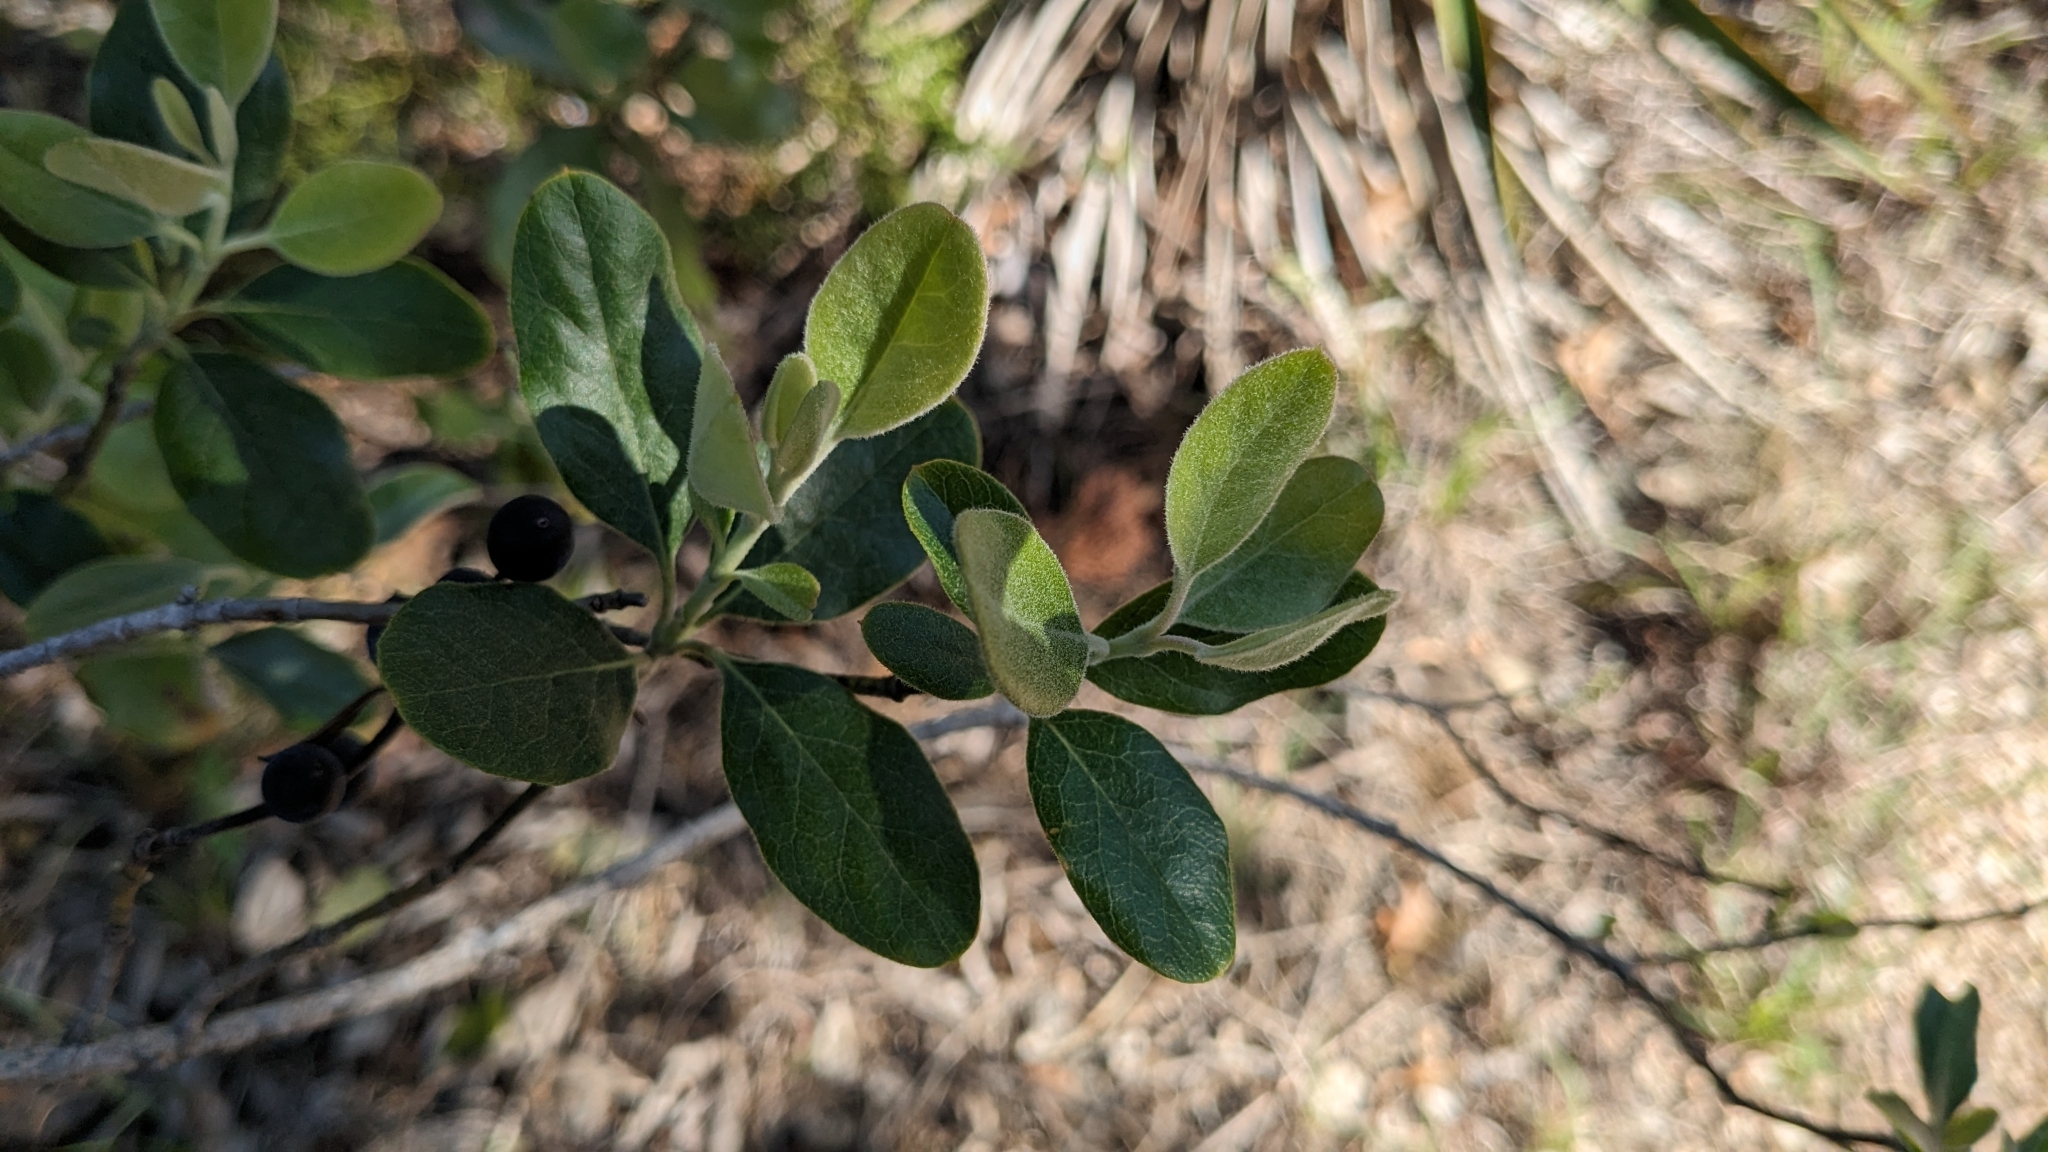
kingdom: Plantae
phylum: Tracheophyta
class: Magnoliopsida
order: Garryales
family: Garryaceae
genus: Garrya
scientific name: Garrya lindheimeri
